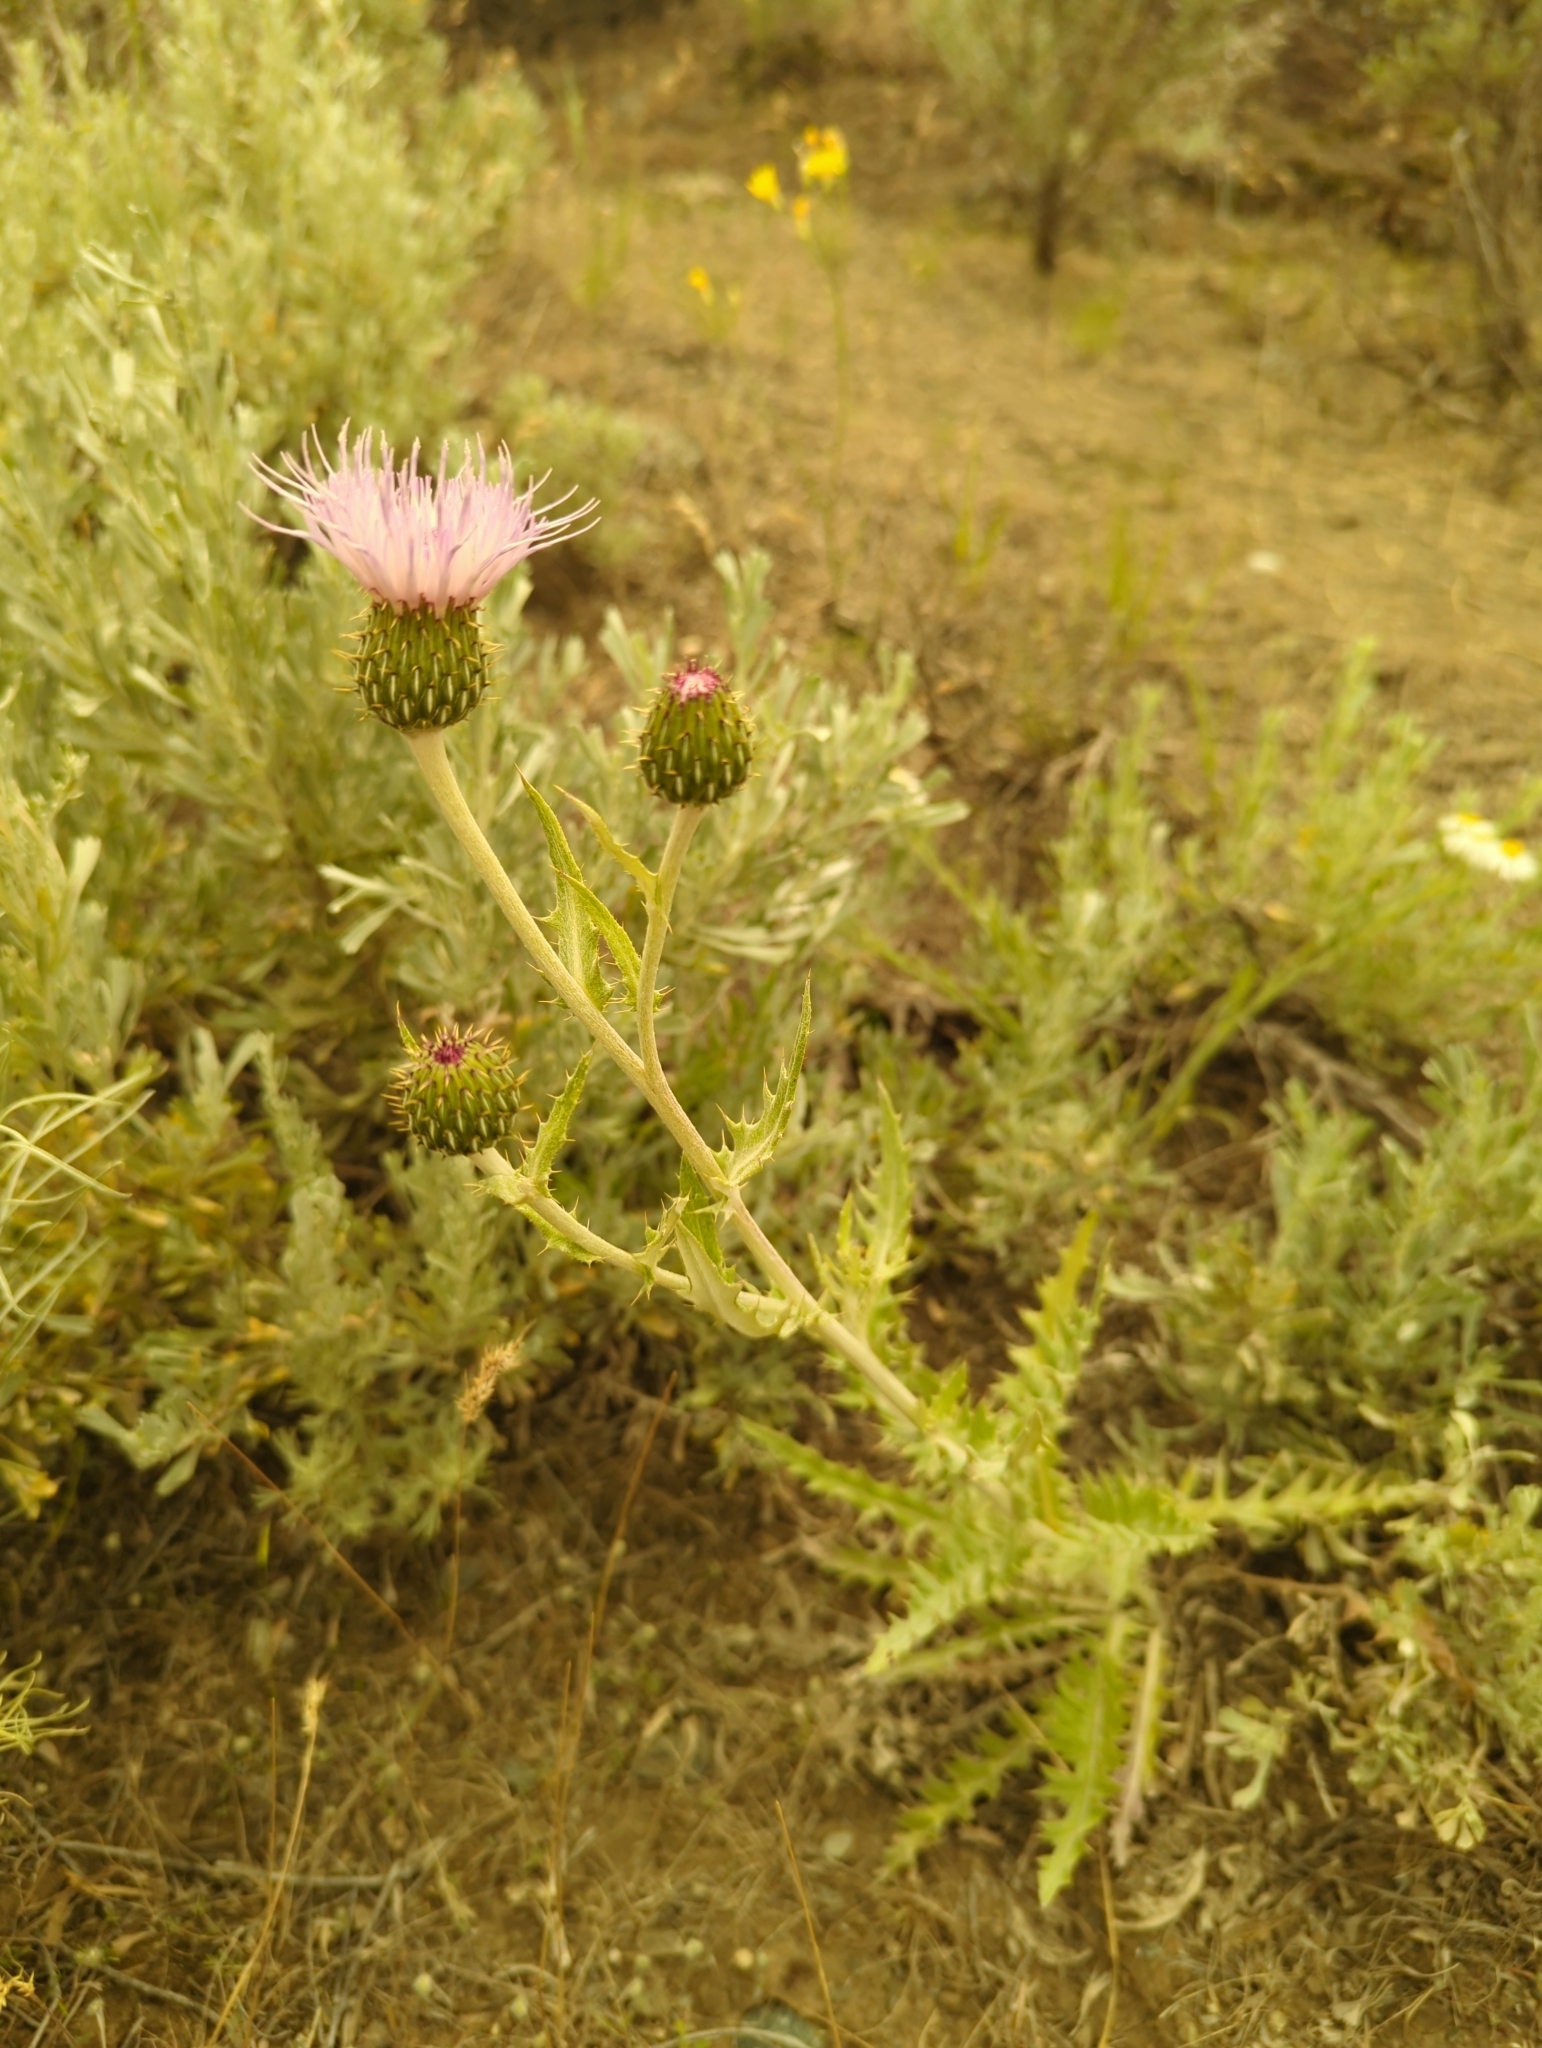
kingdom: Plantae
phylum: Tracheophyta
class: Magnoliopsida
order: Asterales
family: Asteraceae
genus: Cirsium
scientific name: Cirsium undulatum
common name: Pasture thistle
